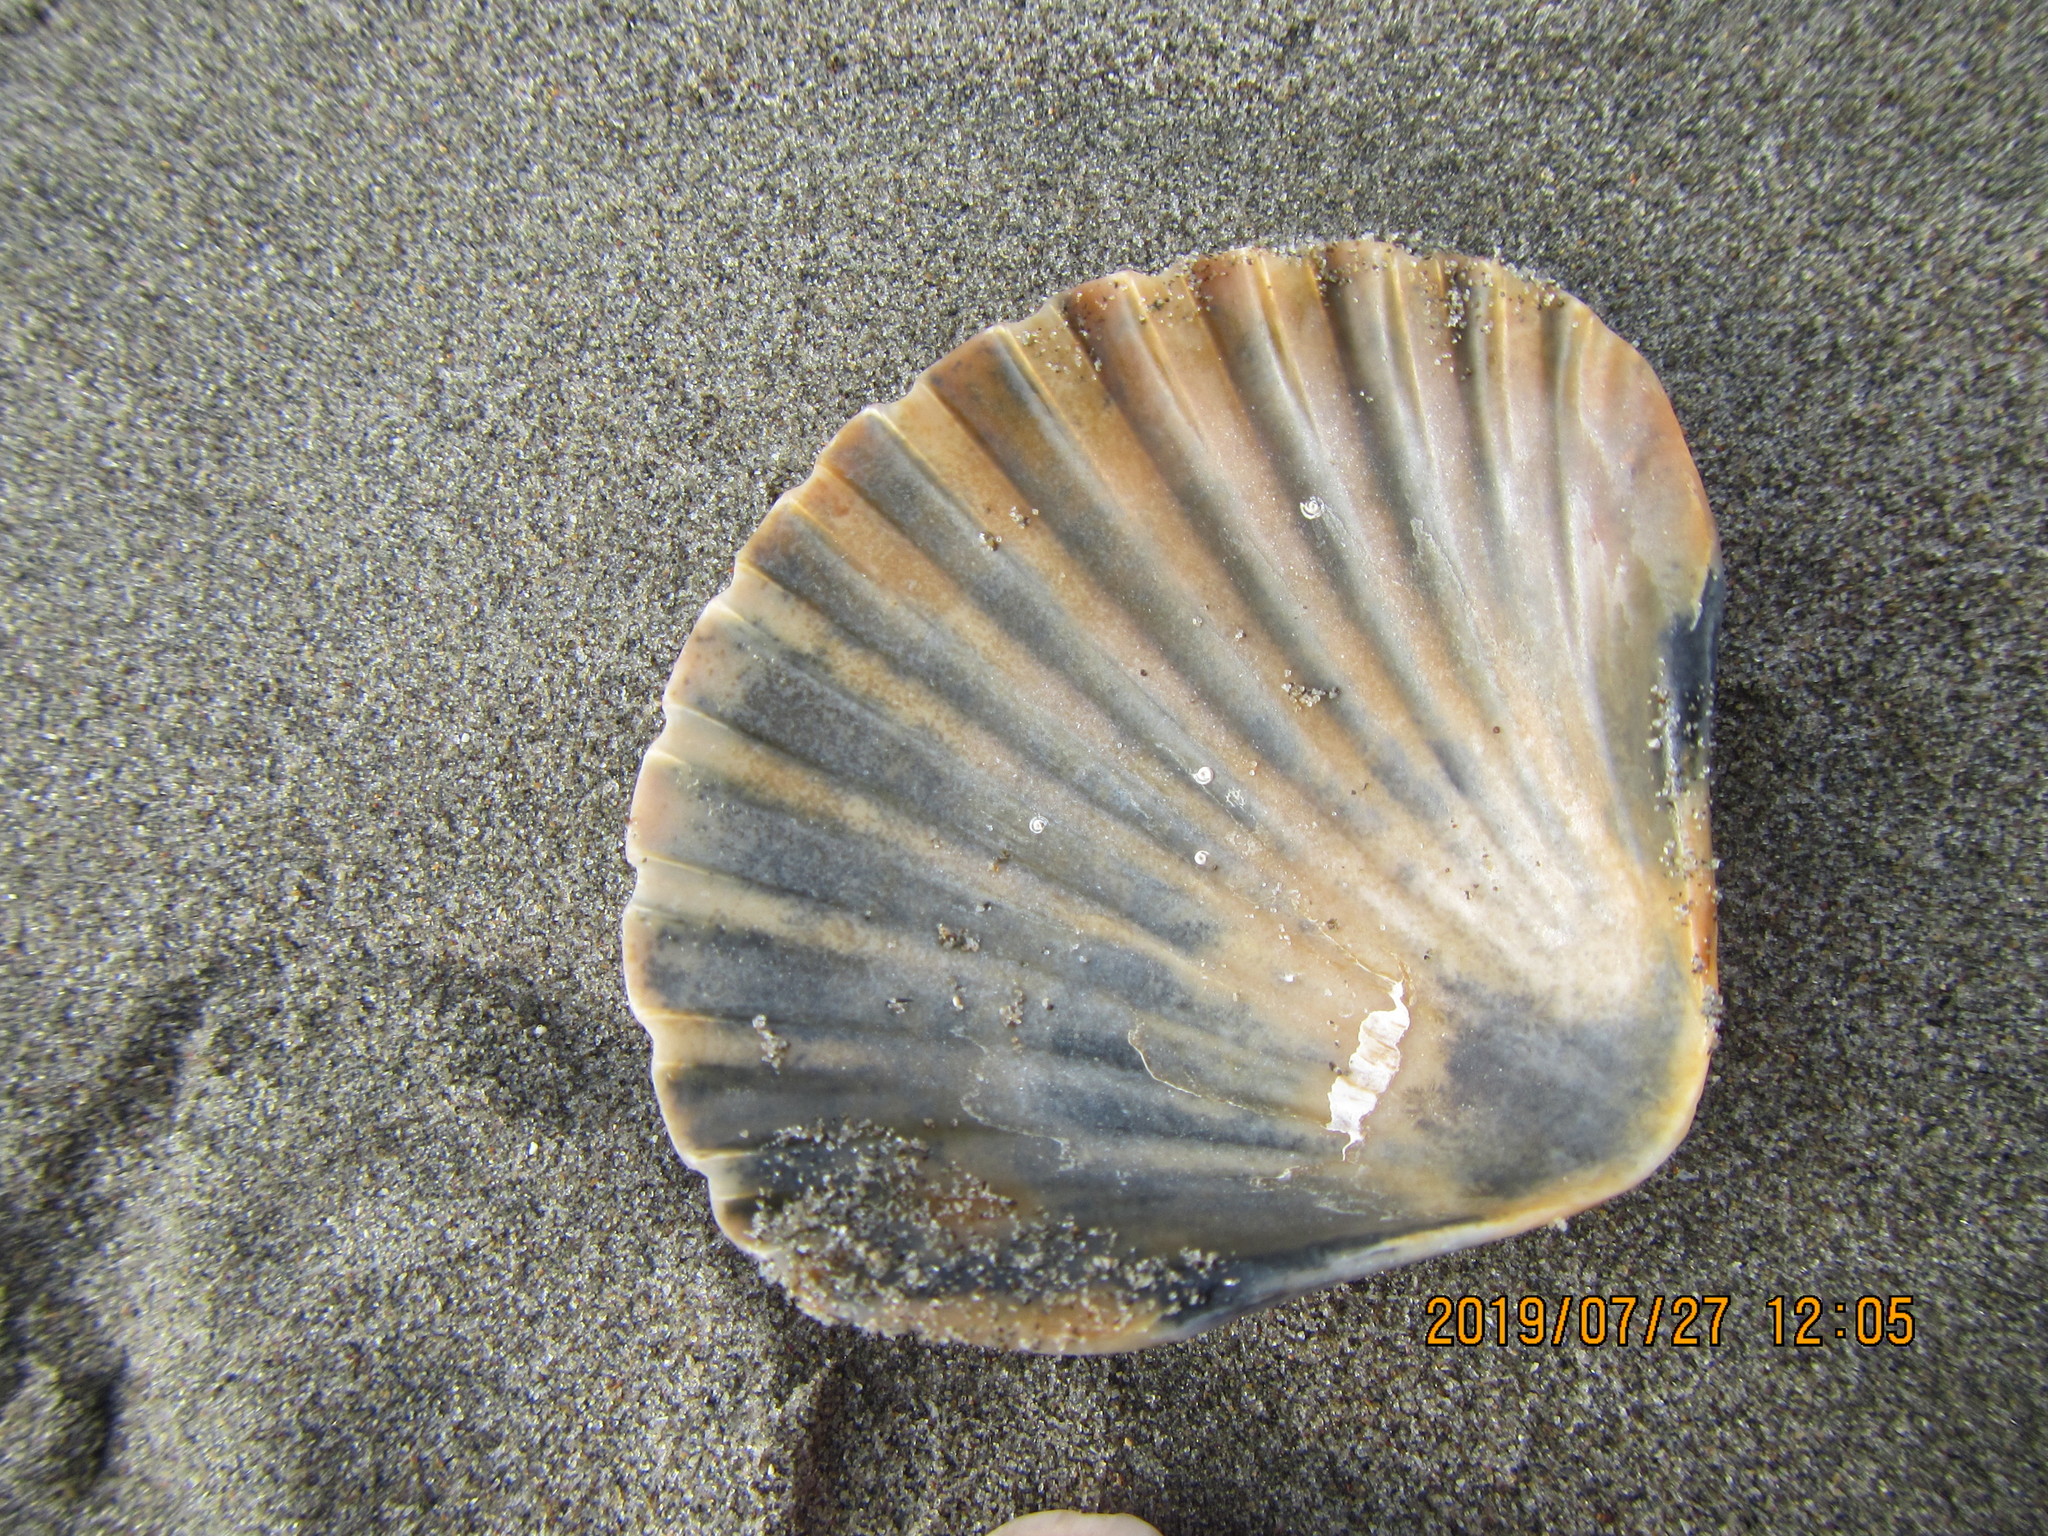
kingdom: Animalia
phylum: Mollusca
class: Bivalvia
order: Pectinida
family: Pectinidae
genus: Pecten
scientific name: Pecten novaezelandiae
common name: New zealand scallop
